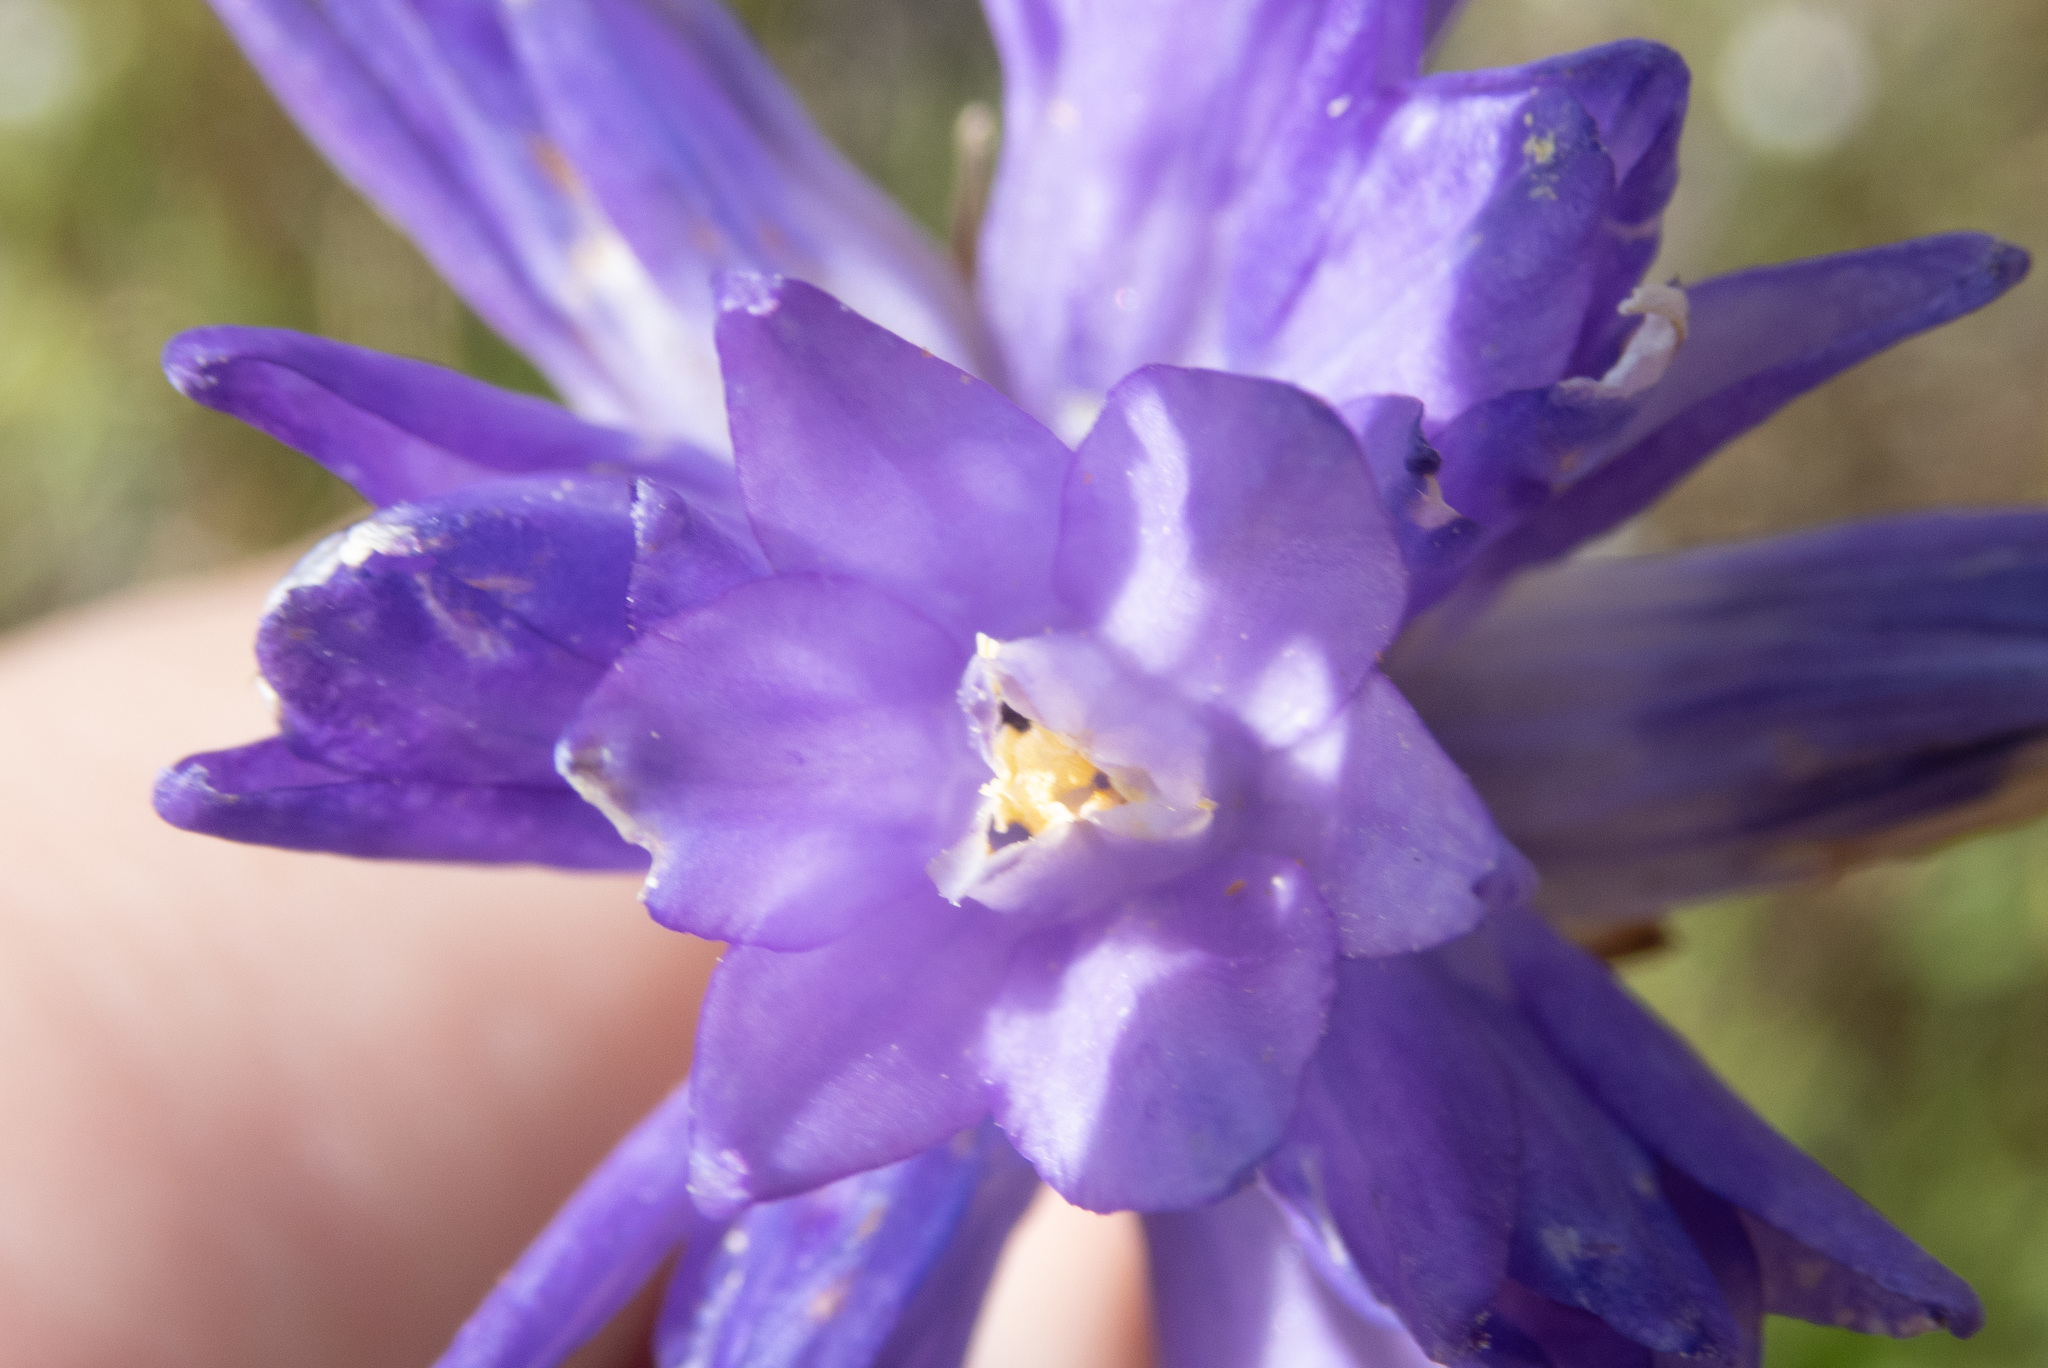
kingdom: Plantae
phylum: Tracheophyta
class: Liliopsida
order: Asparagales
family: Asparagaceae
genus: Dipterostemon
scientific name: Dipterostemon capitatus
